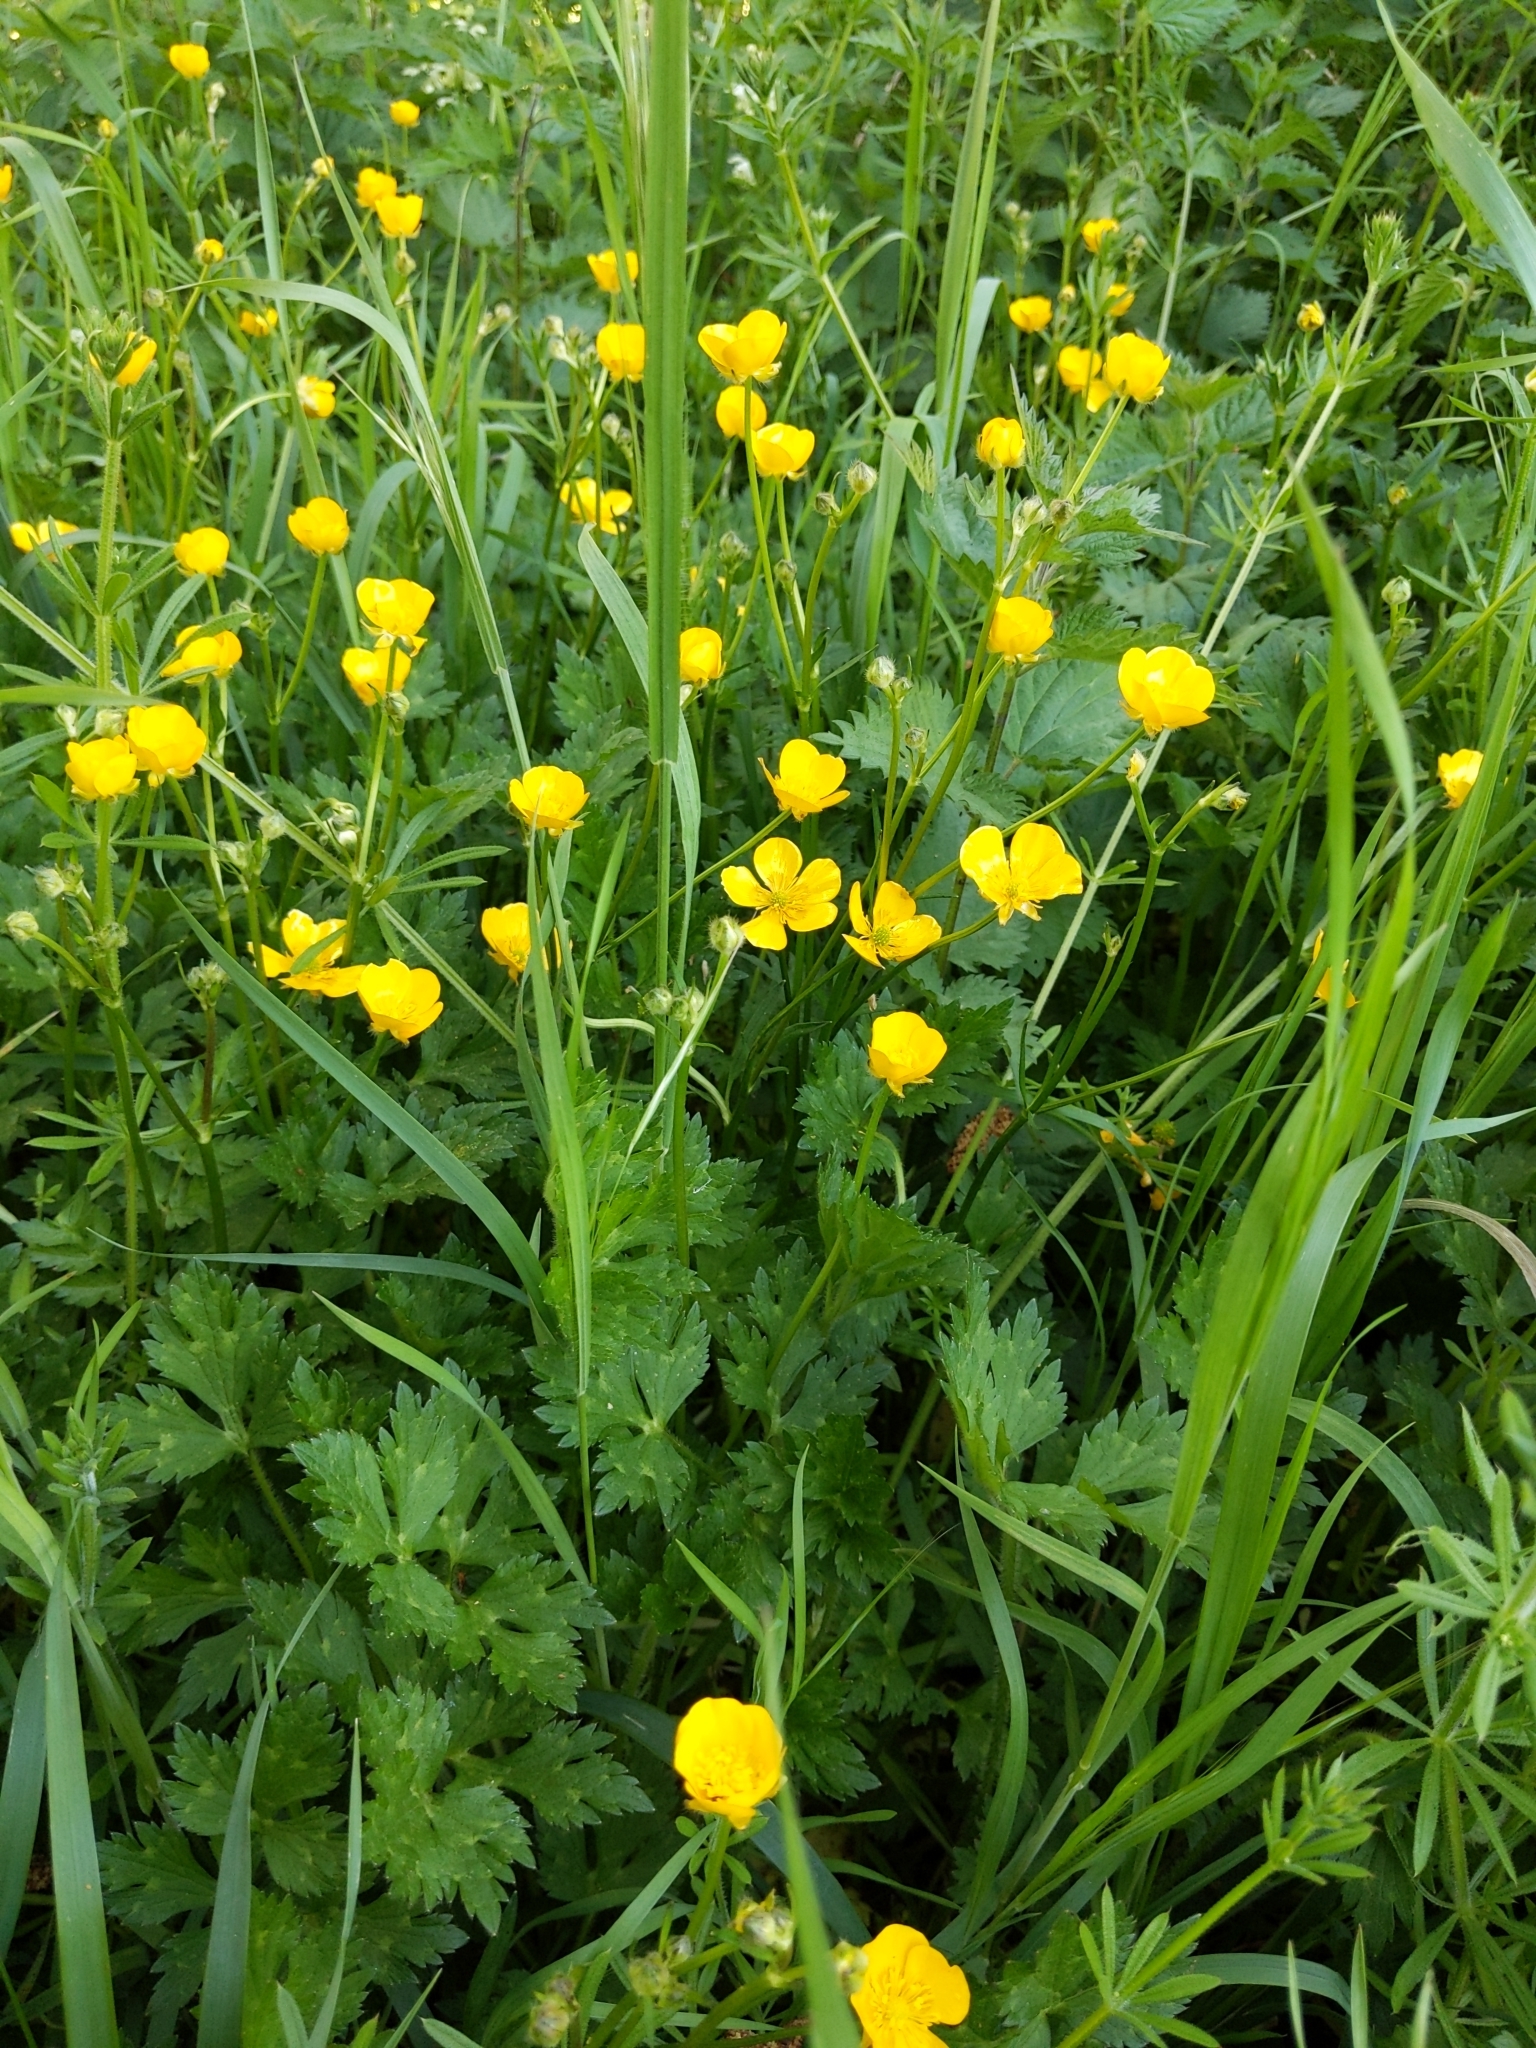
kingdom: Plantae
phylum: Tracheophyta
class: Magnoliopsida
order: Ranunculales
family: Ranunculaceae
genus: Ranunculus
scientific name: Ranunculus repens
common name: Creeping buttercup
